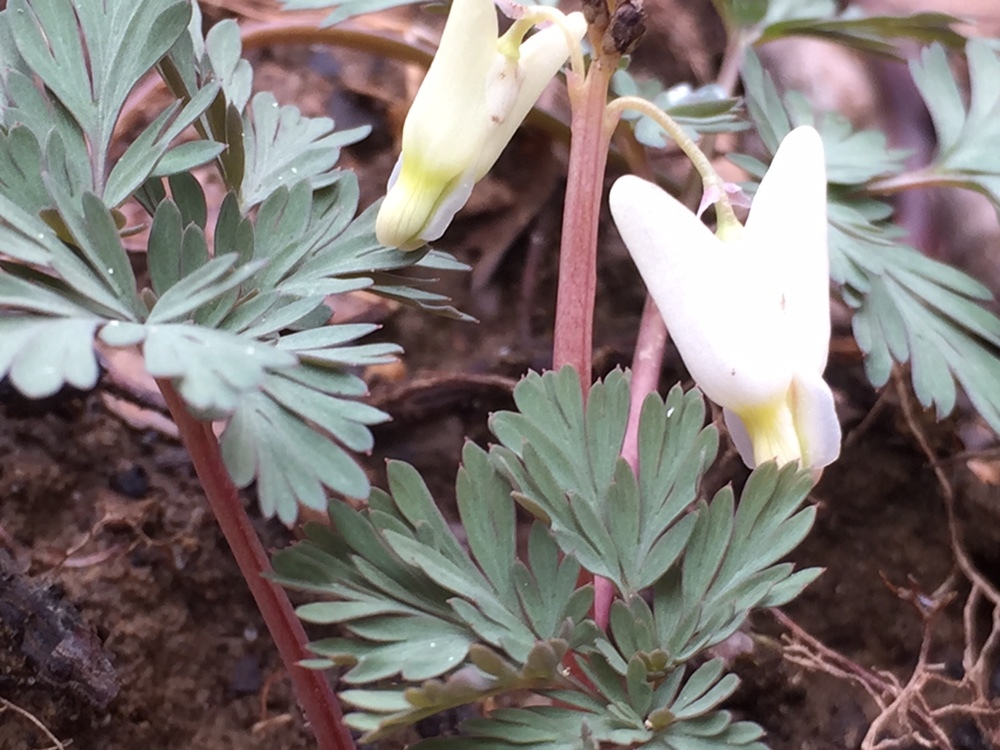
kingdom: Plantae
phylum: Tracheophyta
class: Magnoliopsida
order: Ranunculales
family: Papaveraceae
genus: Dicentra
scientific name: Dicentra cucullaria
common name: Dutchman's breeches
